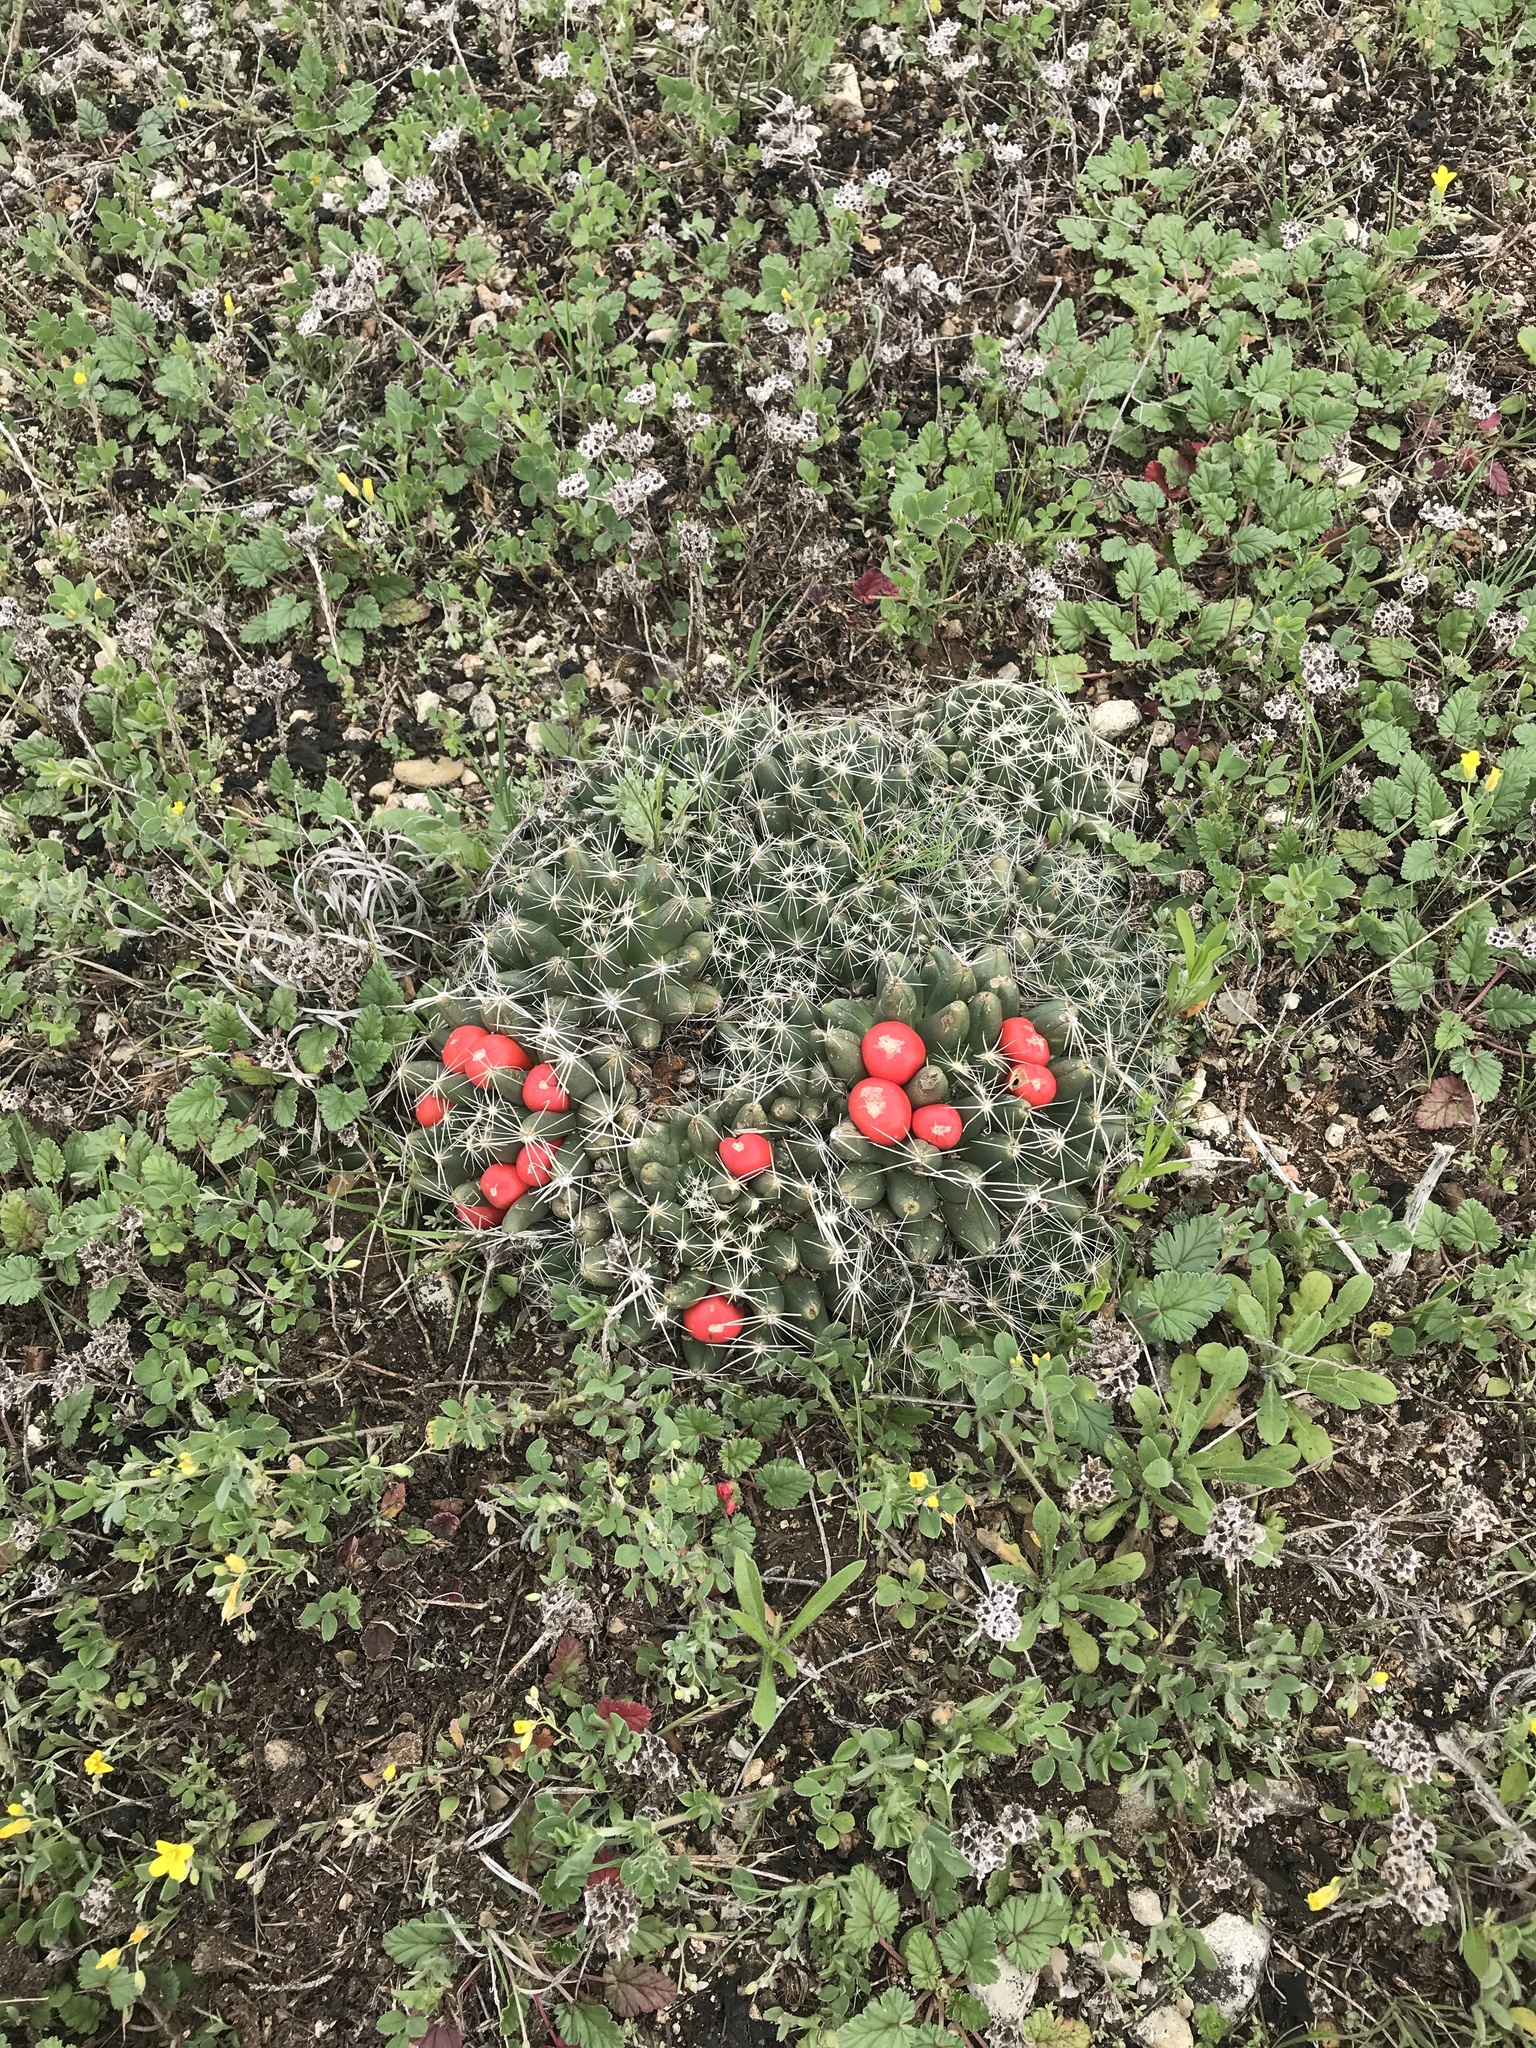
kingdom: Plantae
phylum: Tracheophyta
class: Magnoliopsida
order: Caryophyllales
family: Cactaceae
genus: Pelecyphora
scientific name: Pelecyphora missouriensis
